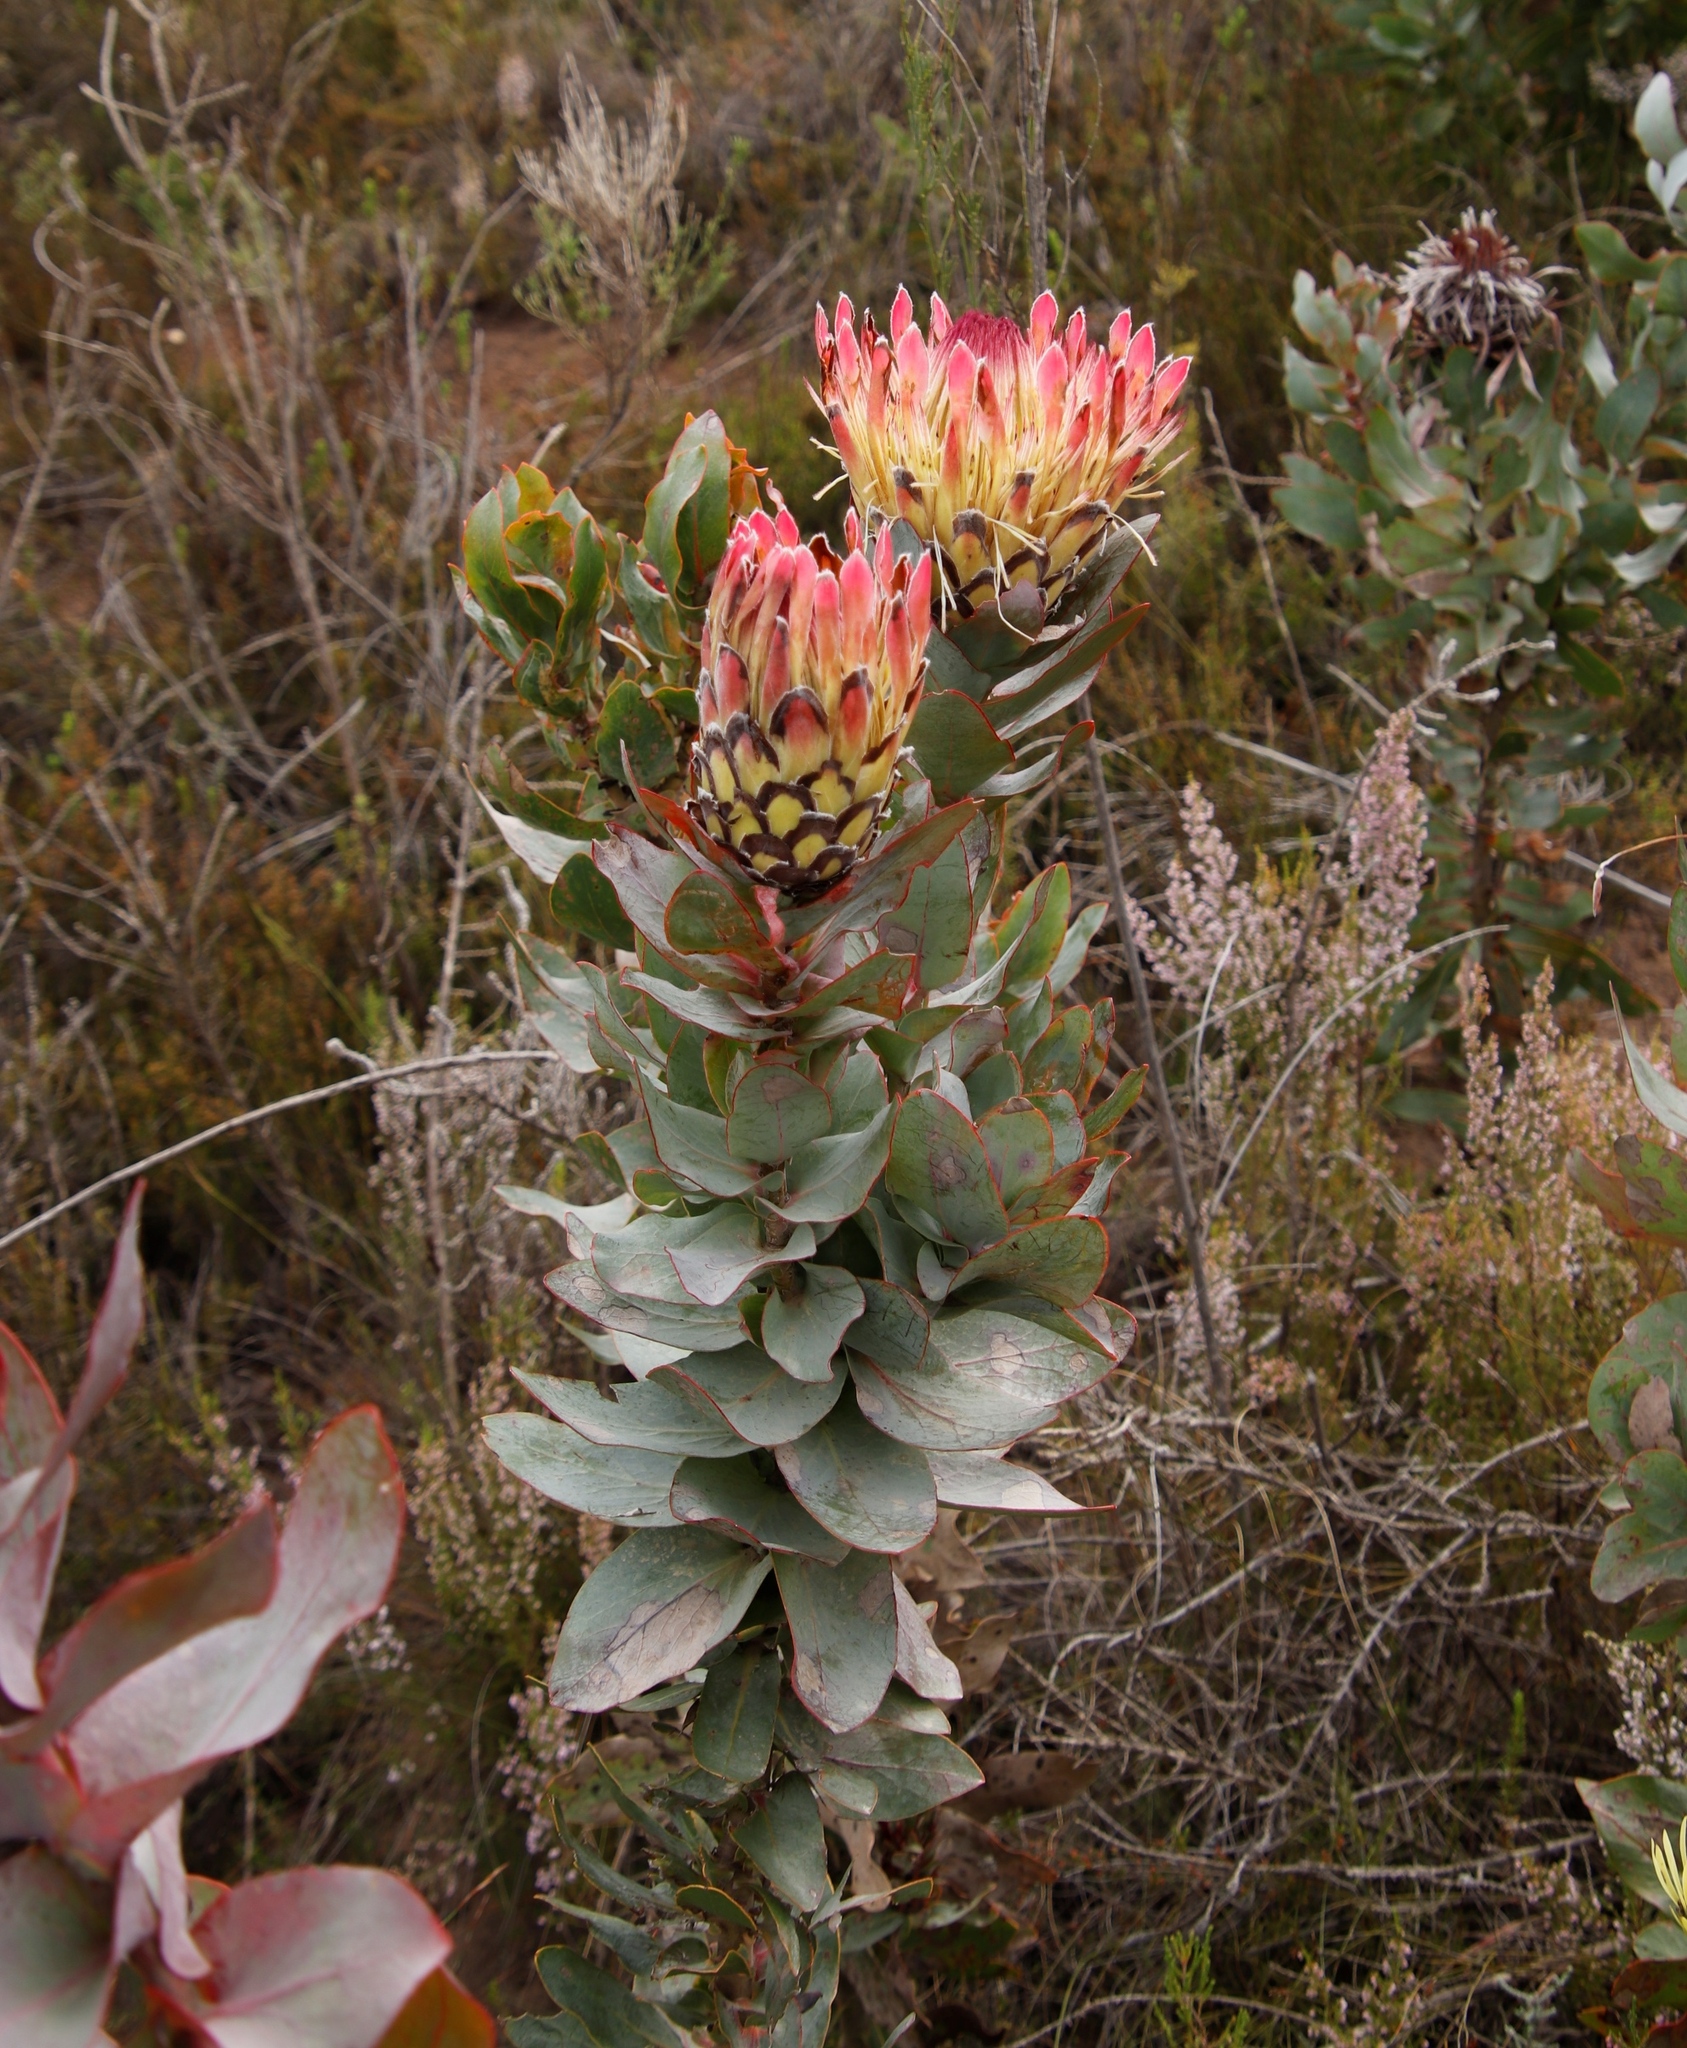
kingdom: Plantae
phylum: Tracheophyta
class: Magnoliopsida
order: Proteales
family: Proteaceae
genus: Protea
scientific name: Protea eximia
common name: Broad-leaved sugarbush
